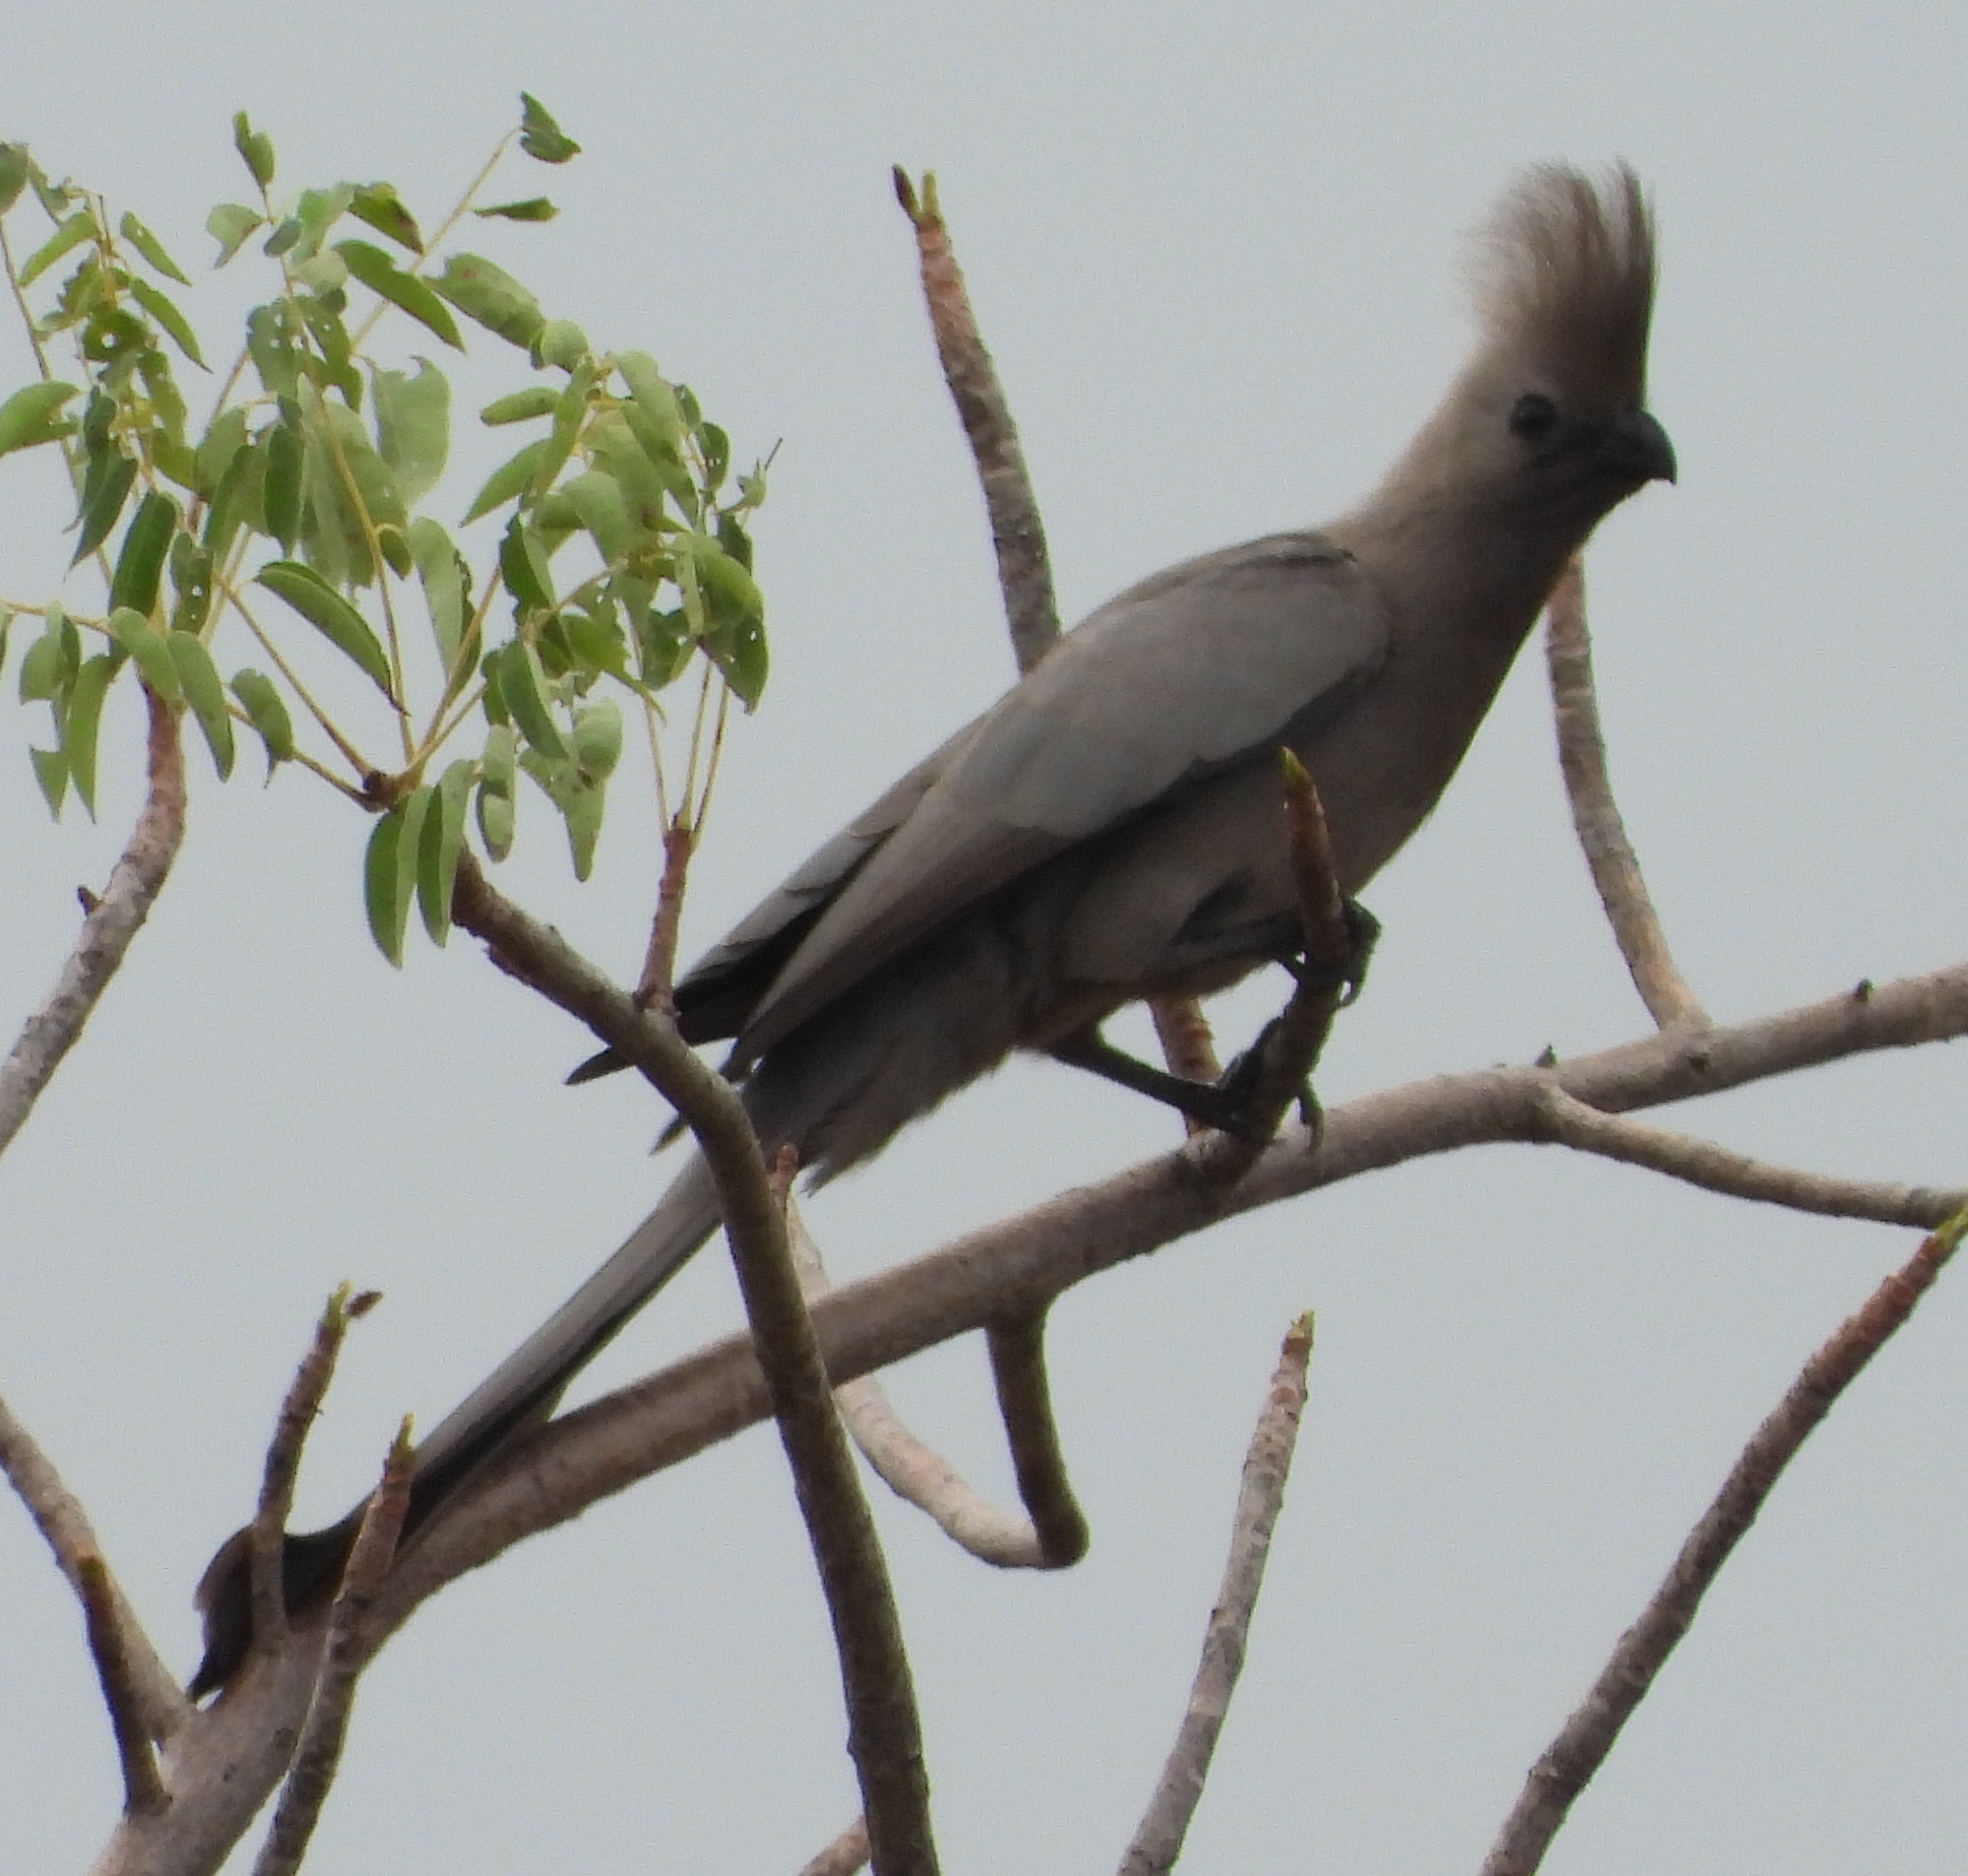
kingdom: Animalia
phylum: Chordata
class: Aves
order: Musophagiformes
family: Musophagidae
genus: Corythaixoides
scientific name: Corythaixoides concolor
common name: Grey go-away-bird
